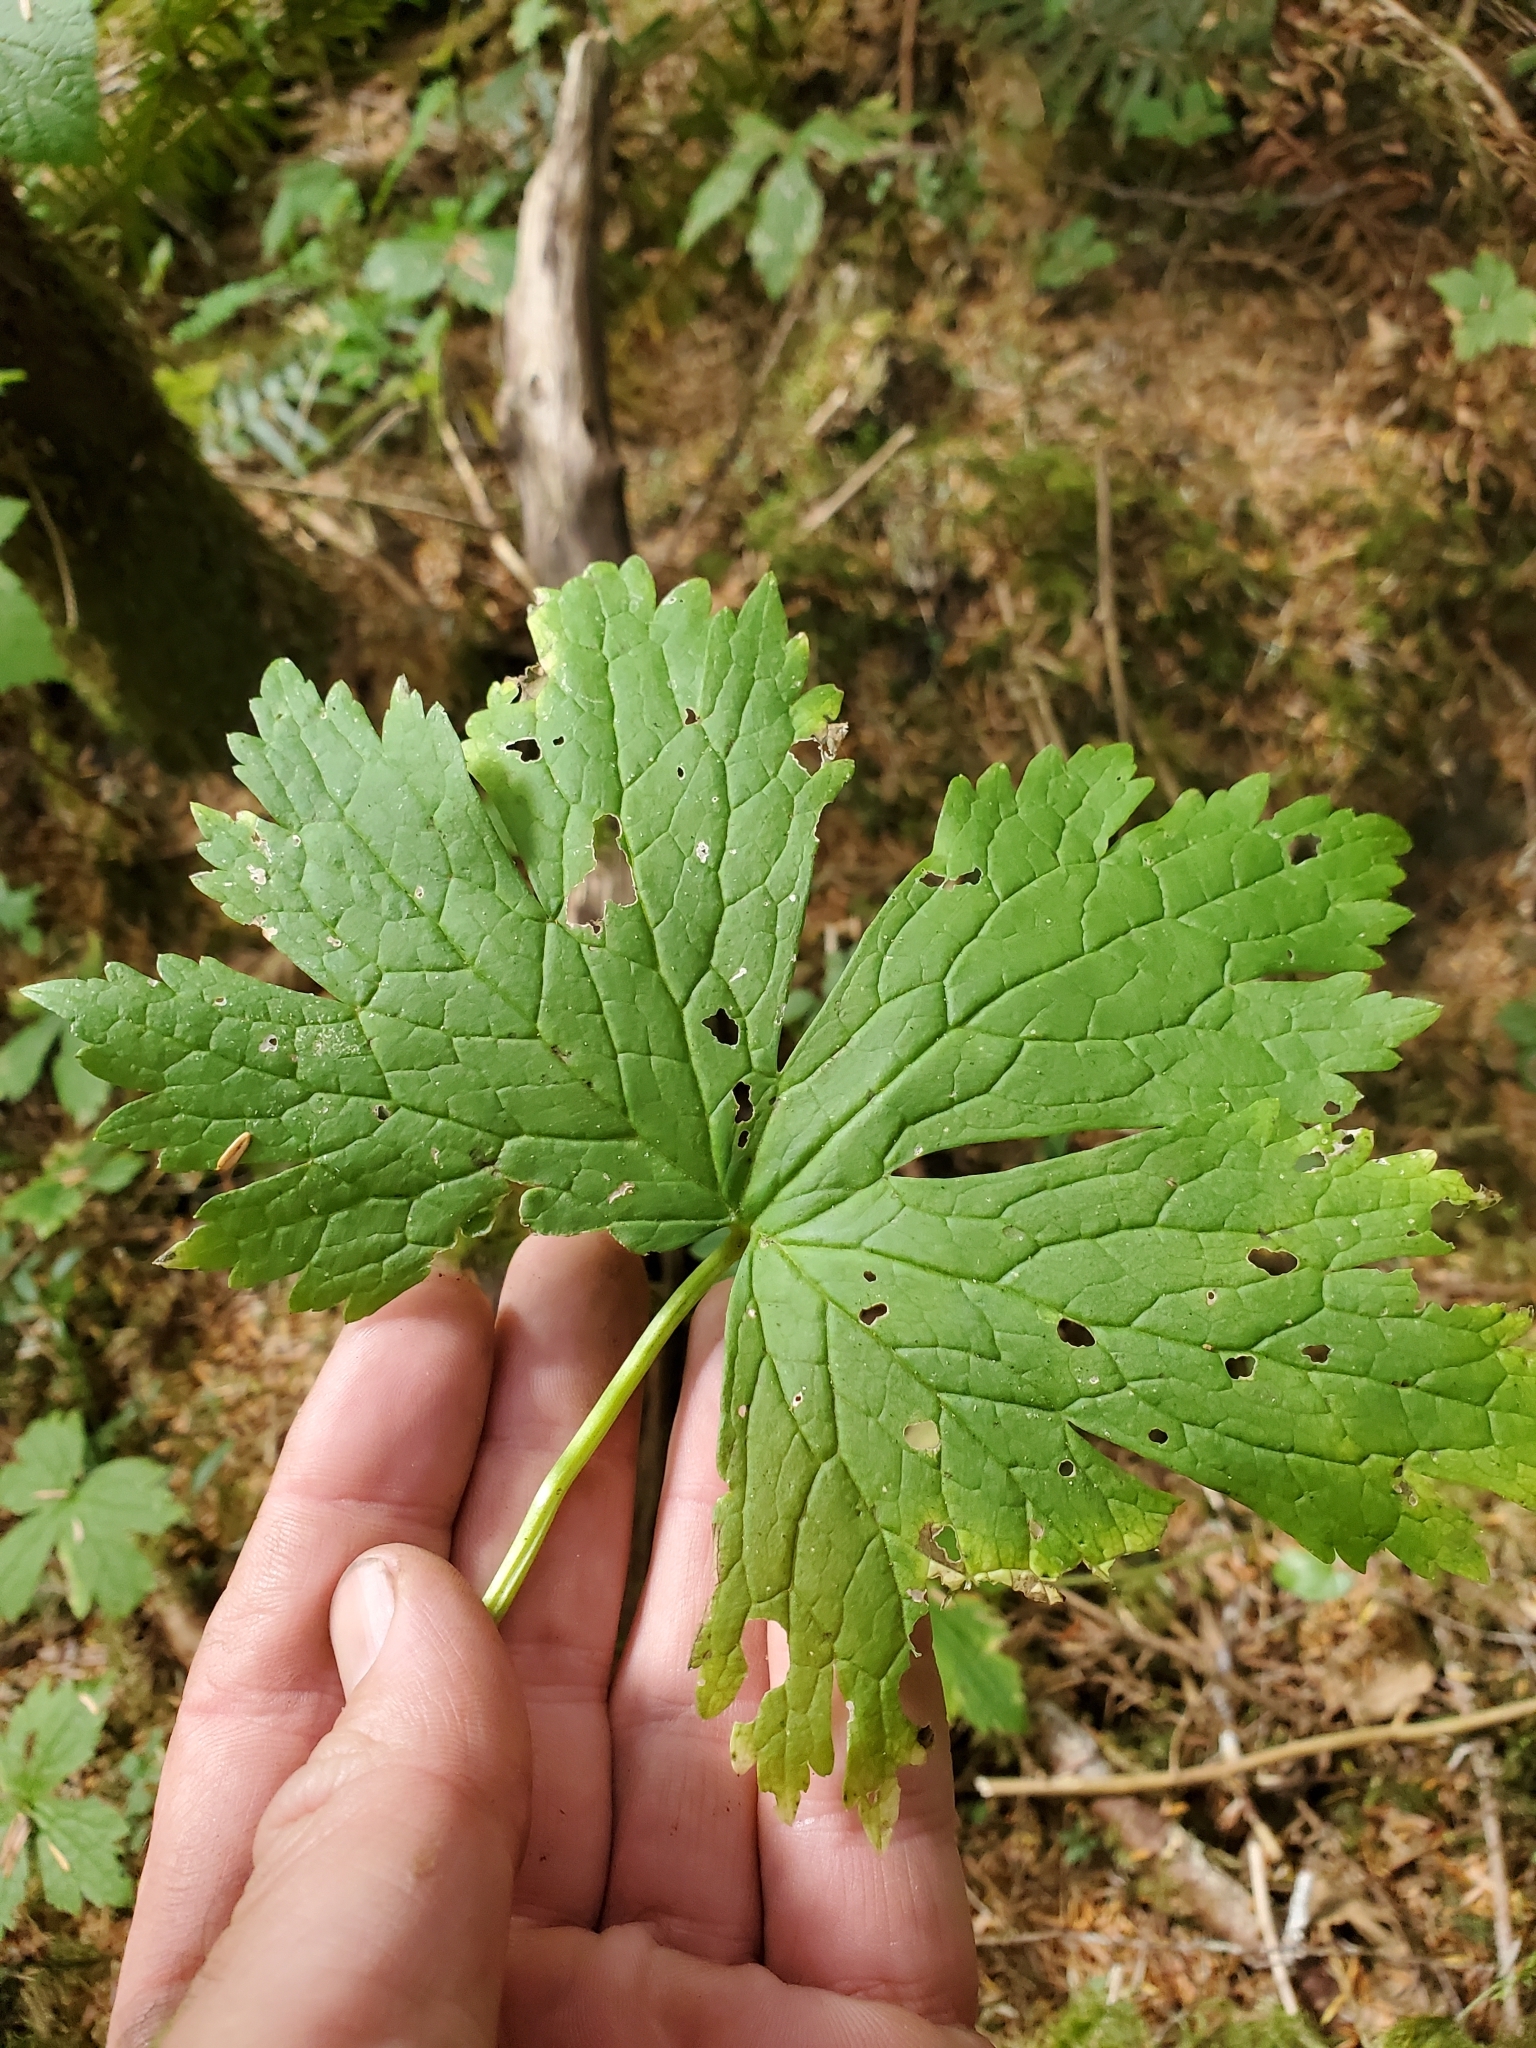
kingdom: Plantae
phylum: Tracheophyta
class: Magnoliopsida
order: Ranunculales
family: Ranunculaceae
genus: Trautvetteria
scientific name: Trautvetteria carolinensis
